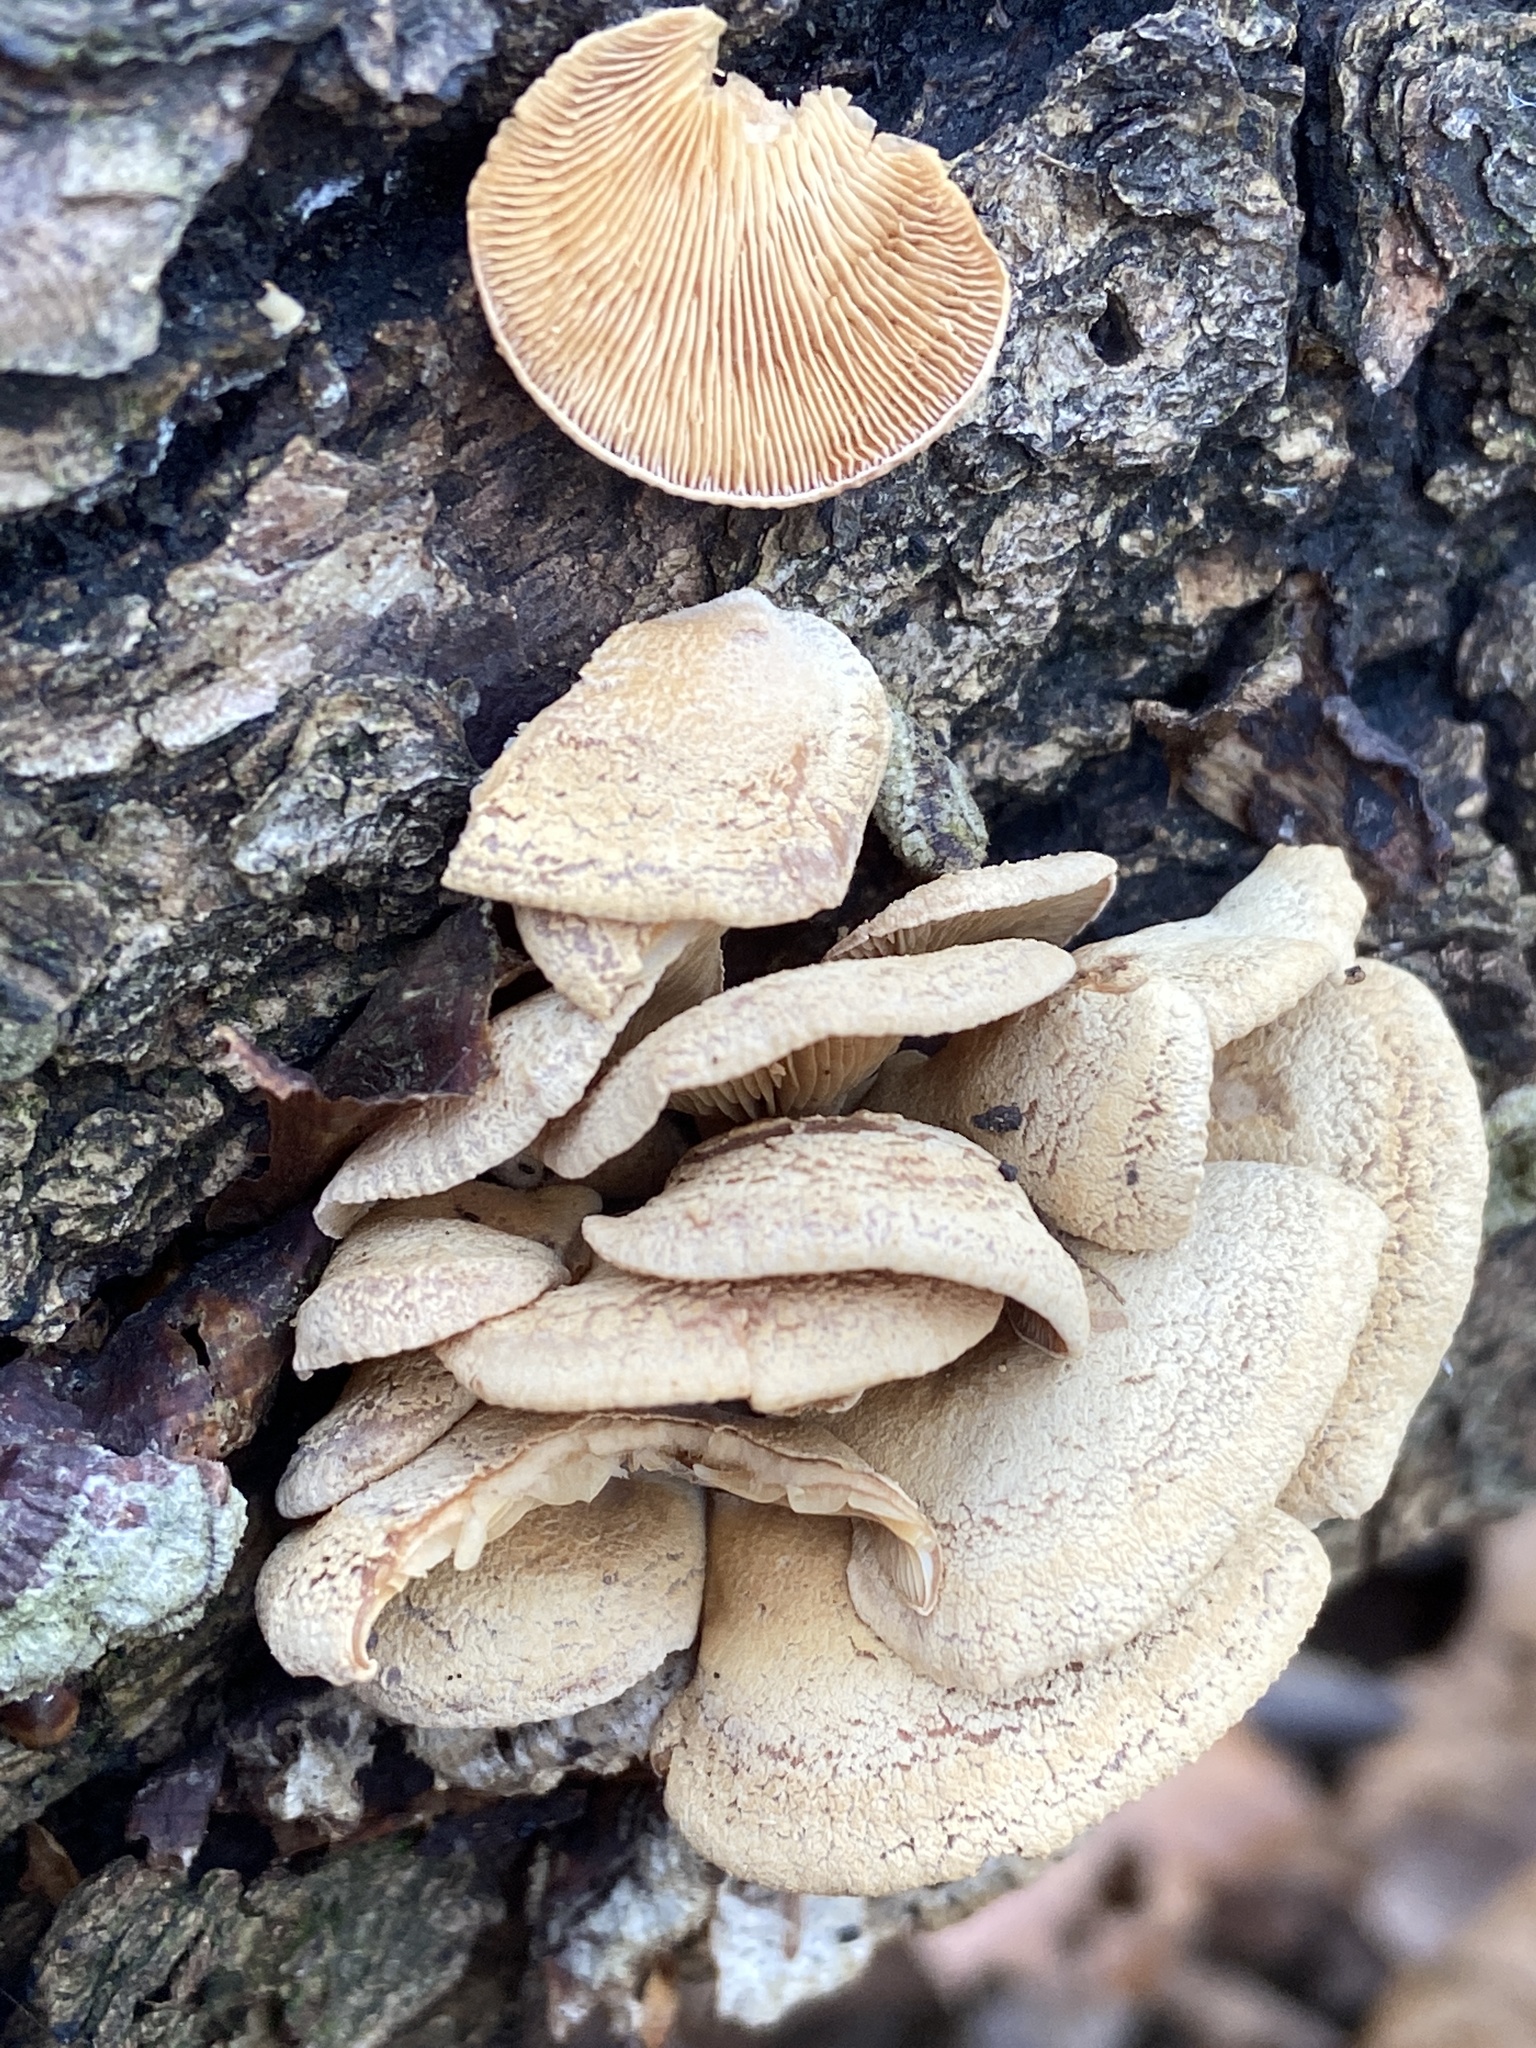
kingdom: Fungi
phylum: Basidiomycota
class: Agaricomycetes
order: Agaricales
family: Mycenaceae
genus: Panellus
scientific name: Panellus stipticus
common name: Bitter oysterling
